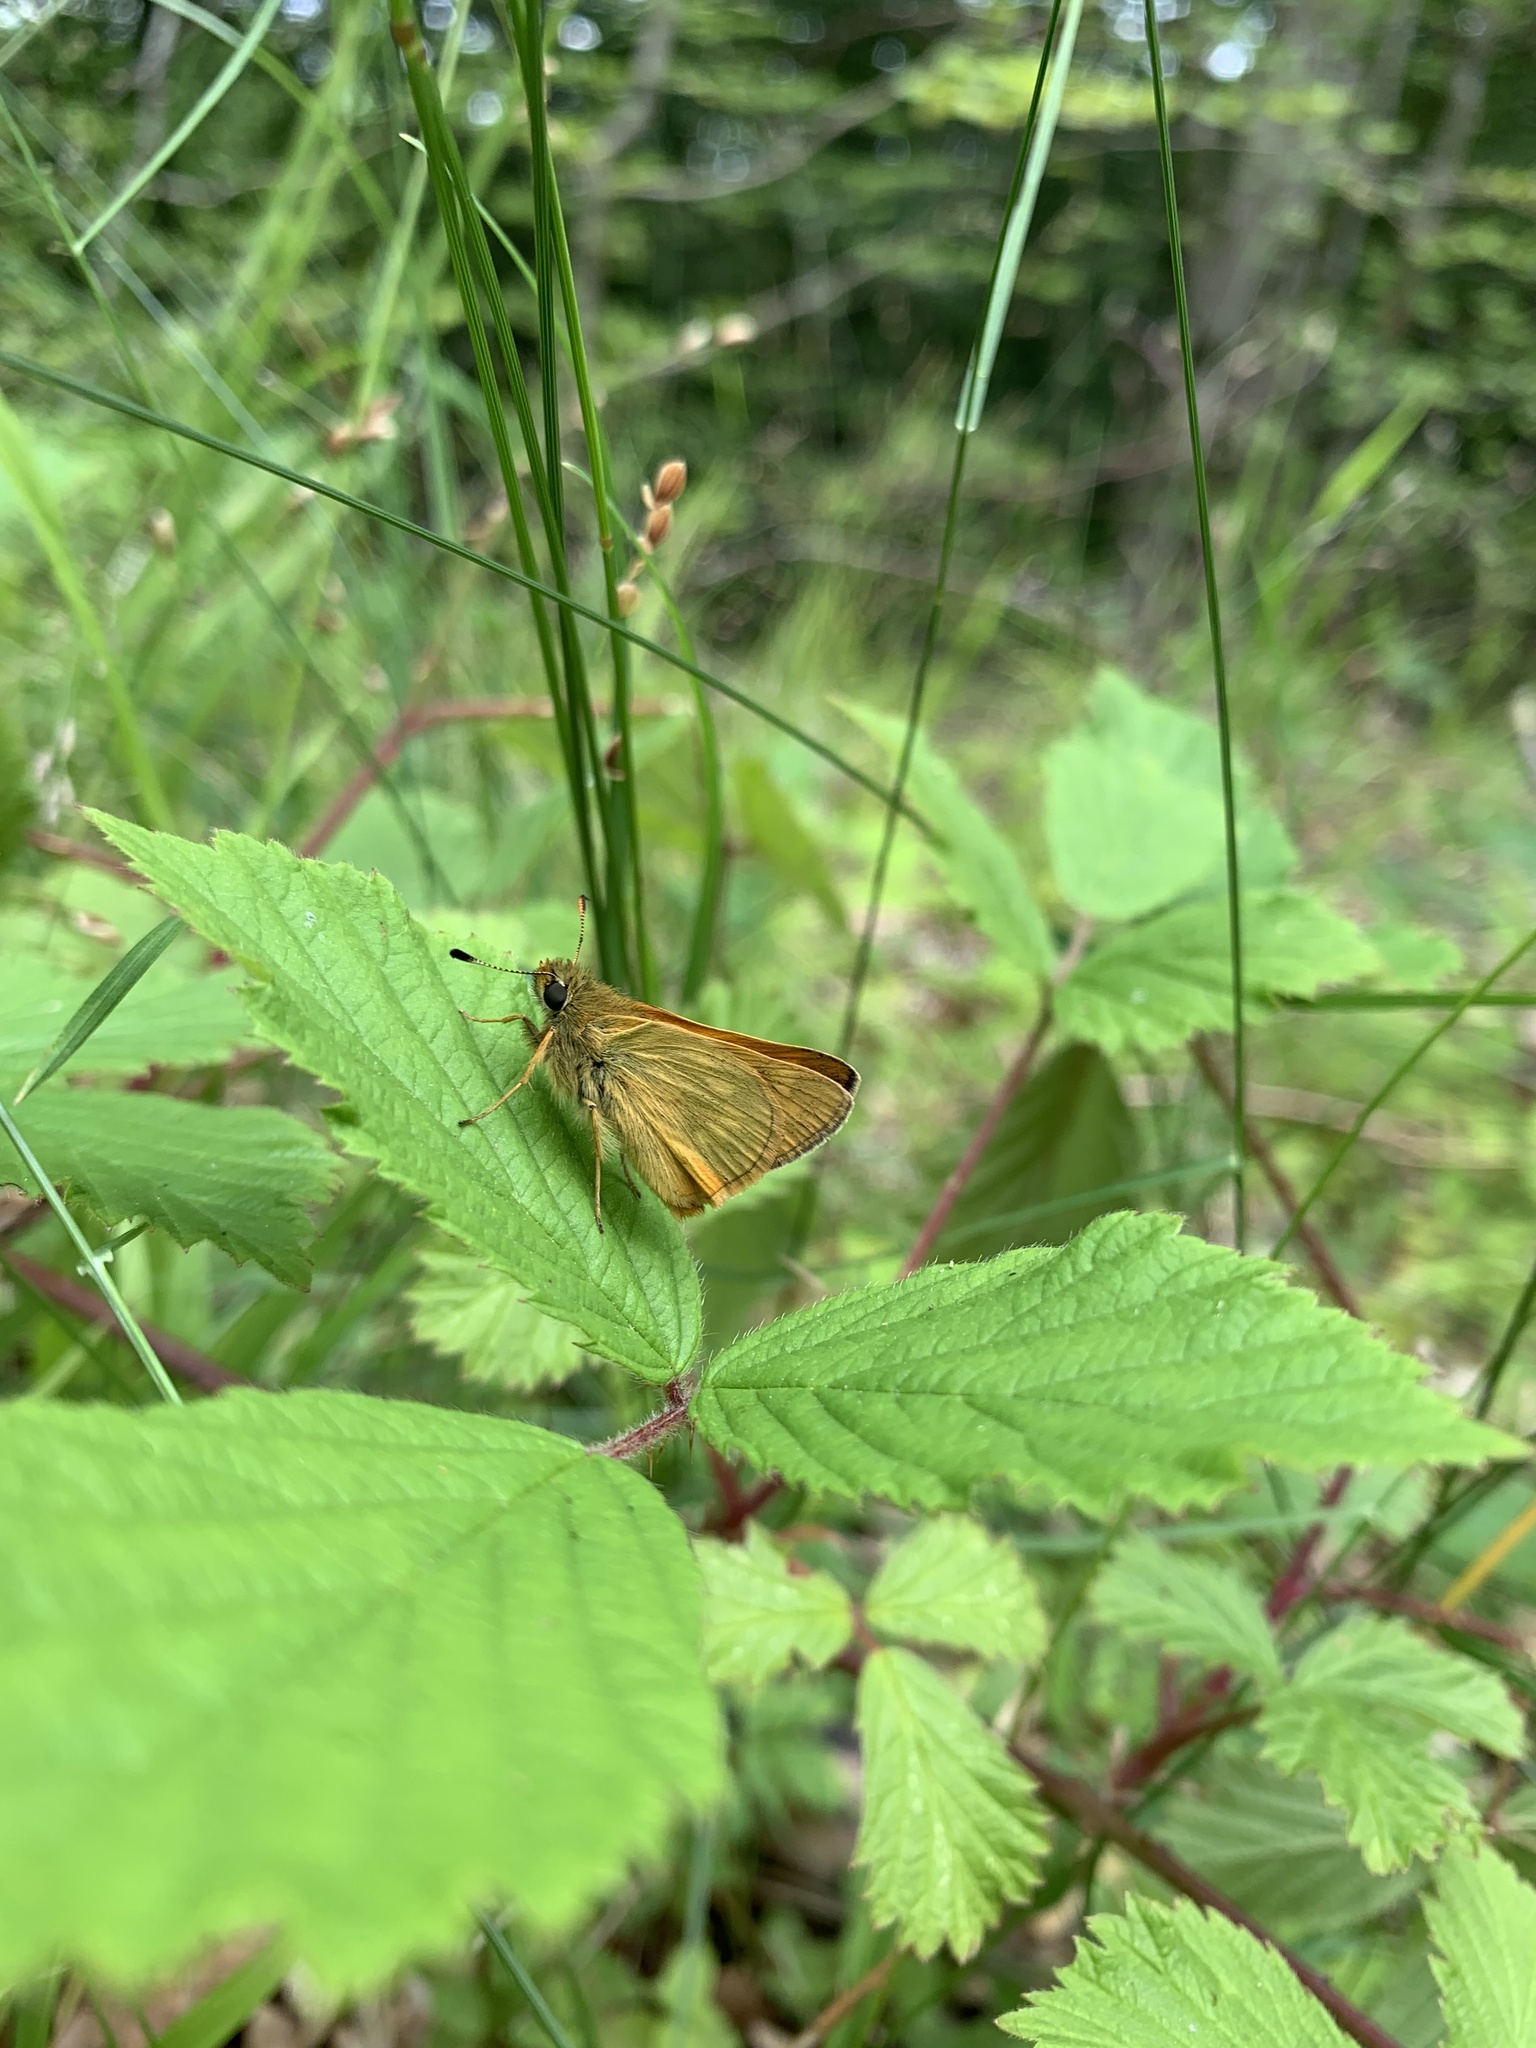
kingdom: Animalia
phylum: Arthropoda
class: Insecta
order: Lepidoptera
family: Hesperiidae
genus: Ochlodes
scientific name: Ochlodes venata
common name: Large skipper
